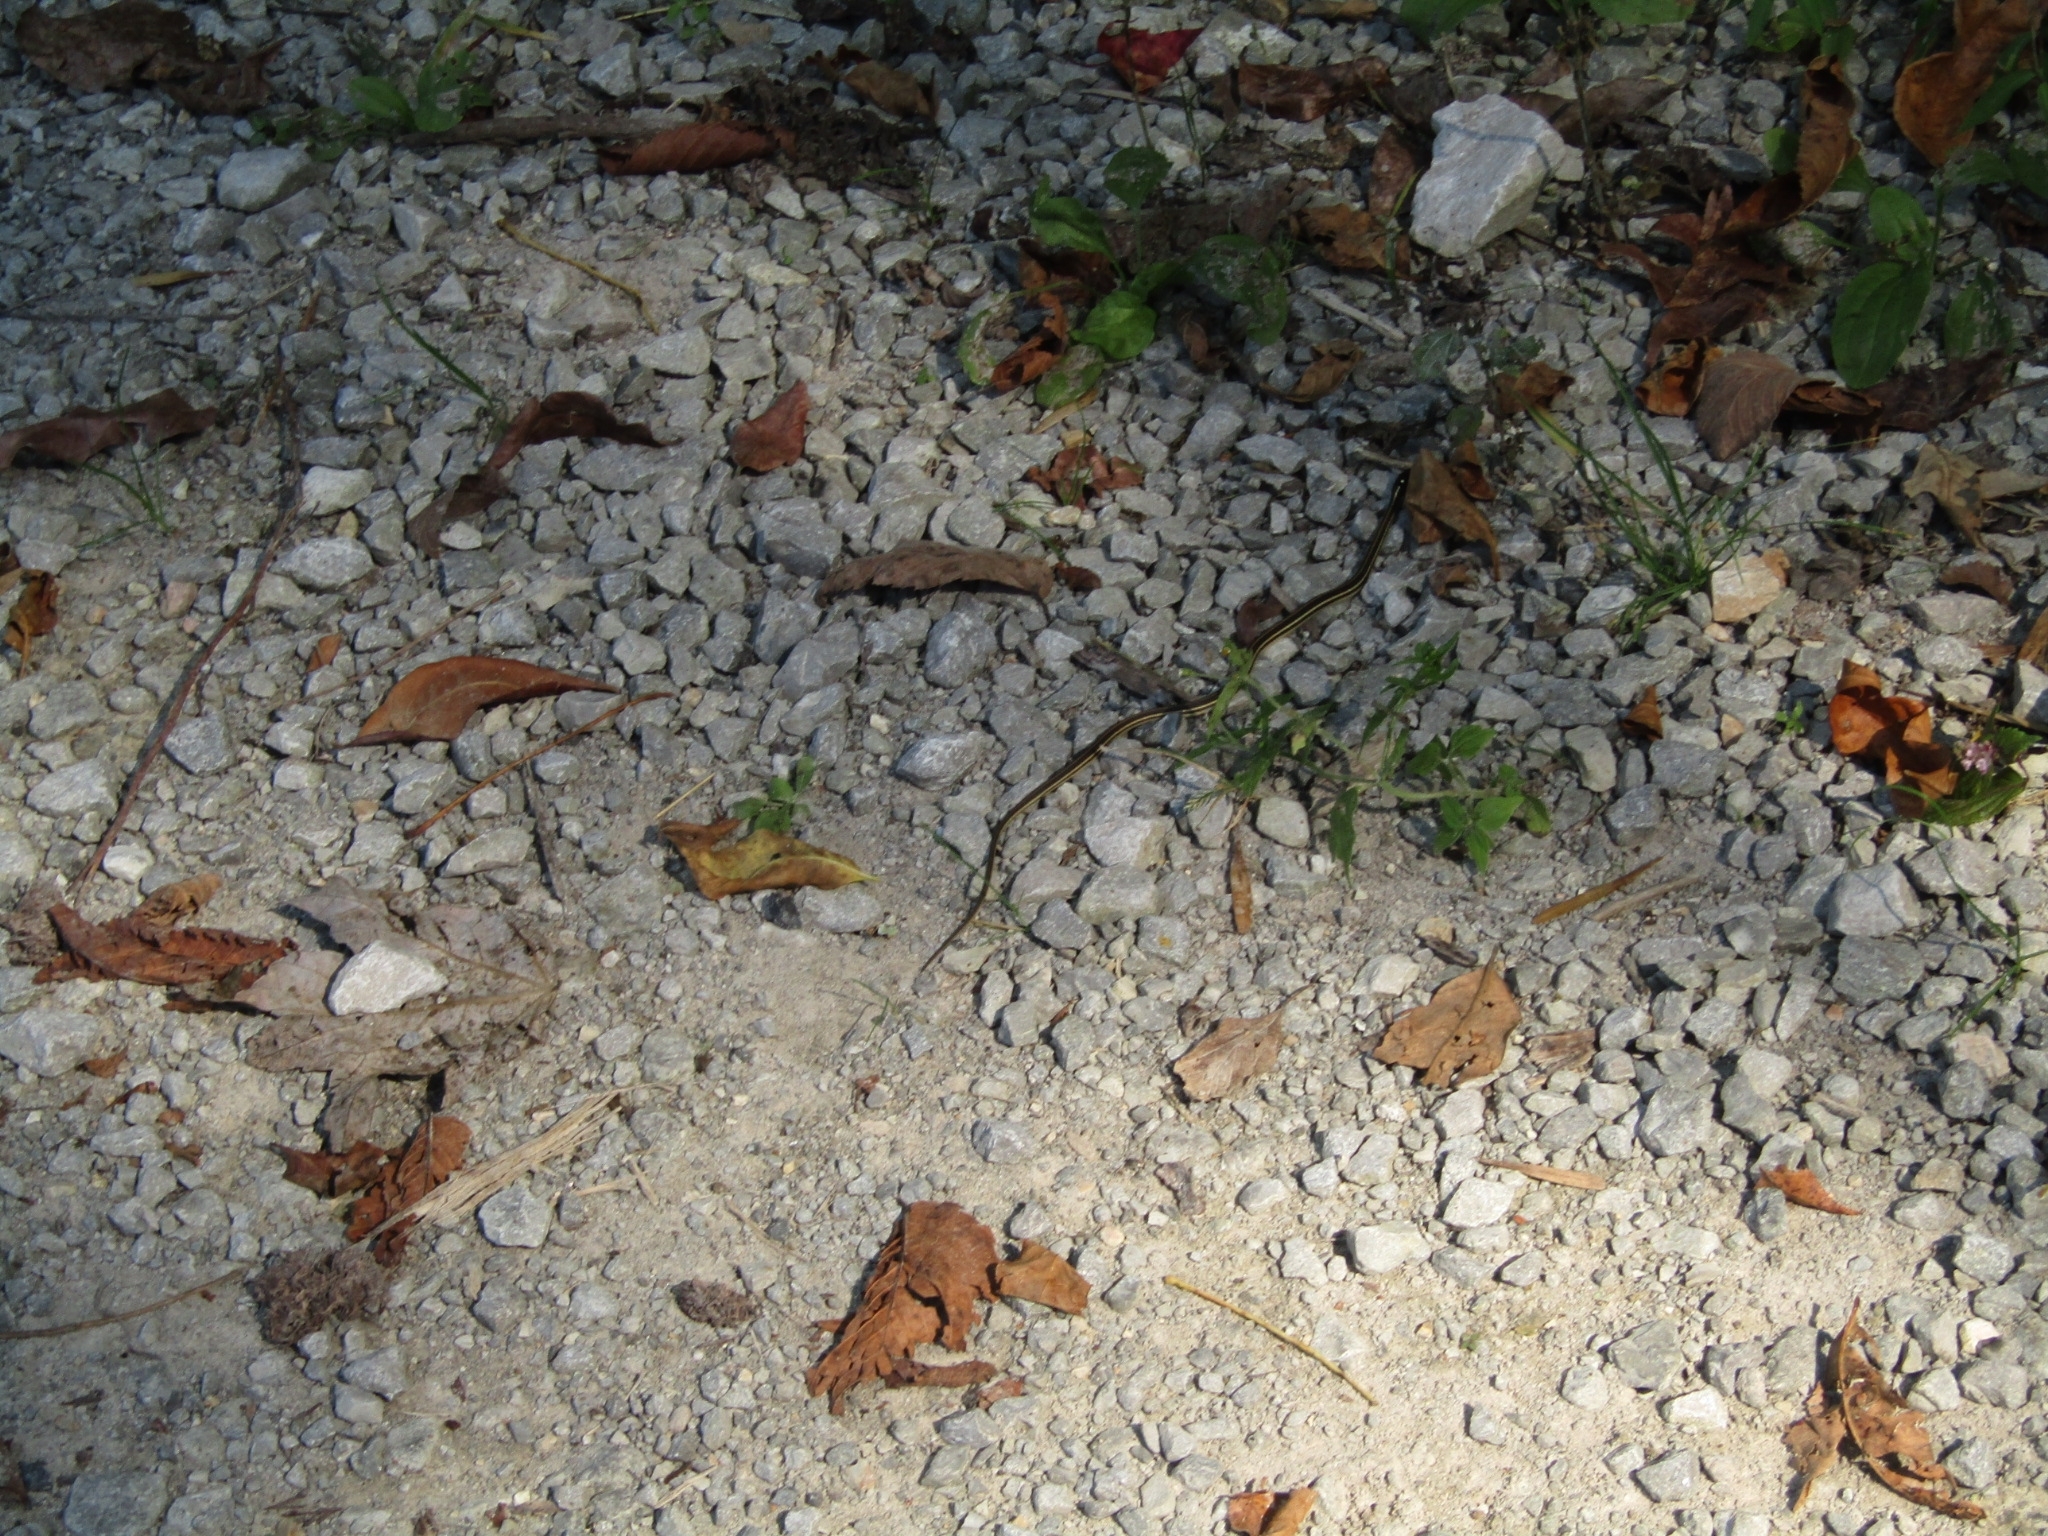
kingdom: Animalia
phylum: Chordata
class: Squamata
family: Colubridae
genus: Thamnophis
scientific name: Thamnophis proximus
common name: Western ribbon snake
